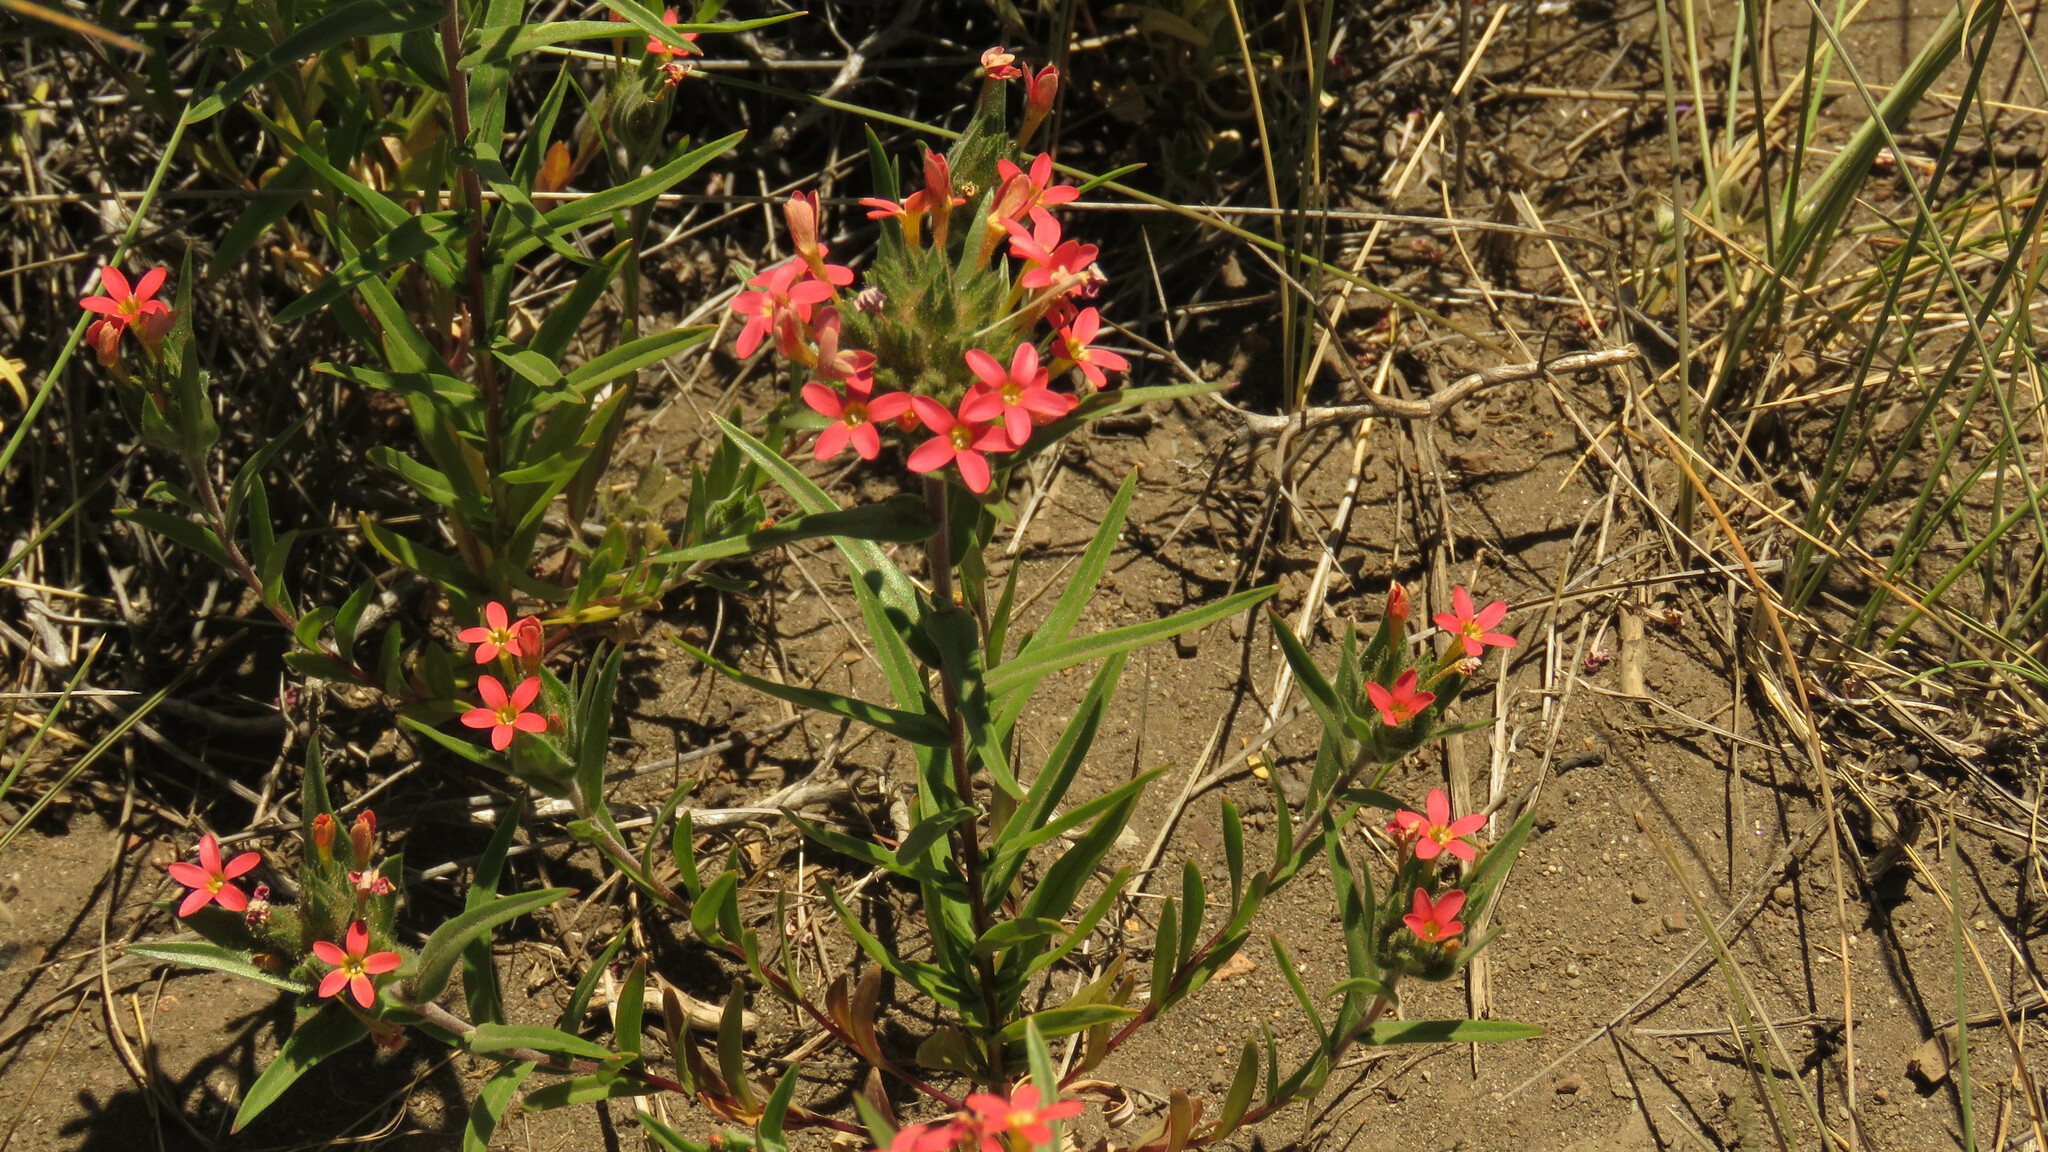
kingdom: Plantae
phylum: Tracheophyta
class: Magnoliopsida
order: Ericales
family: Polemoniaceae
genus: Collomia
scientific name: Collomia biflora
